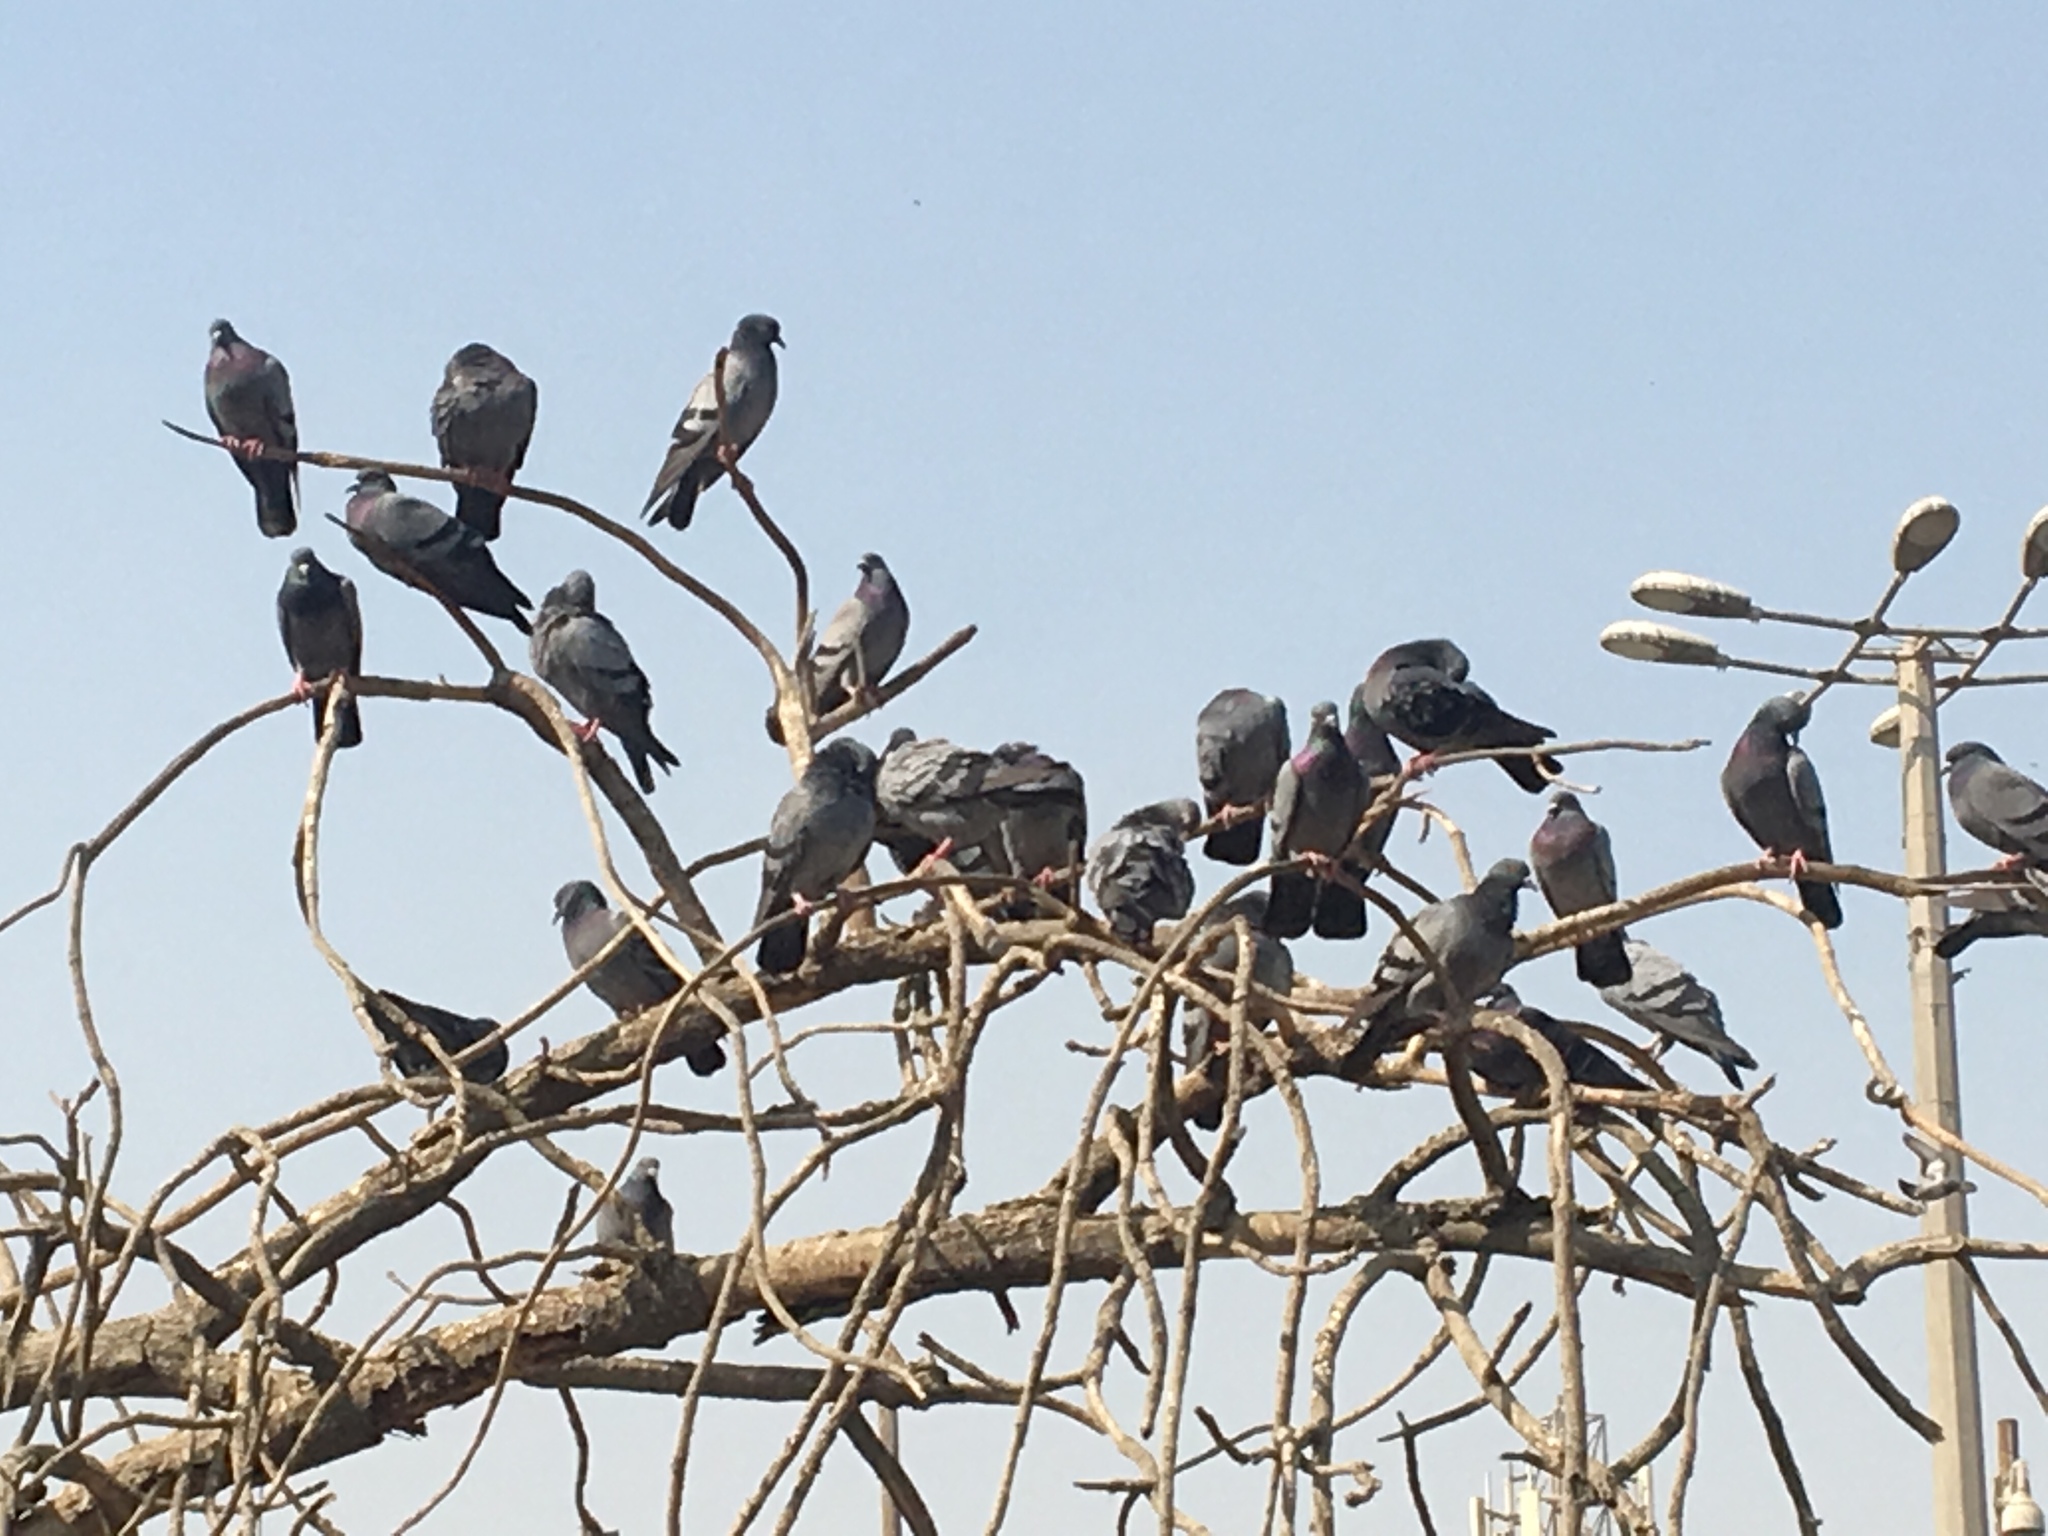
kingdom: Animalia
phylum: Chordata
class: Aves
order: Columbiformes
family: Columbidae
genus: Columba
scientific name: Columba livia
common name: Rock pigeon
